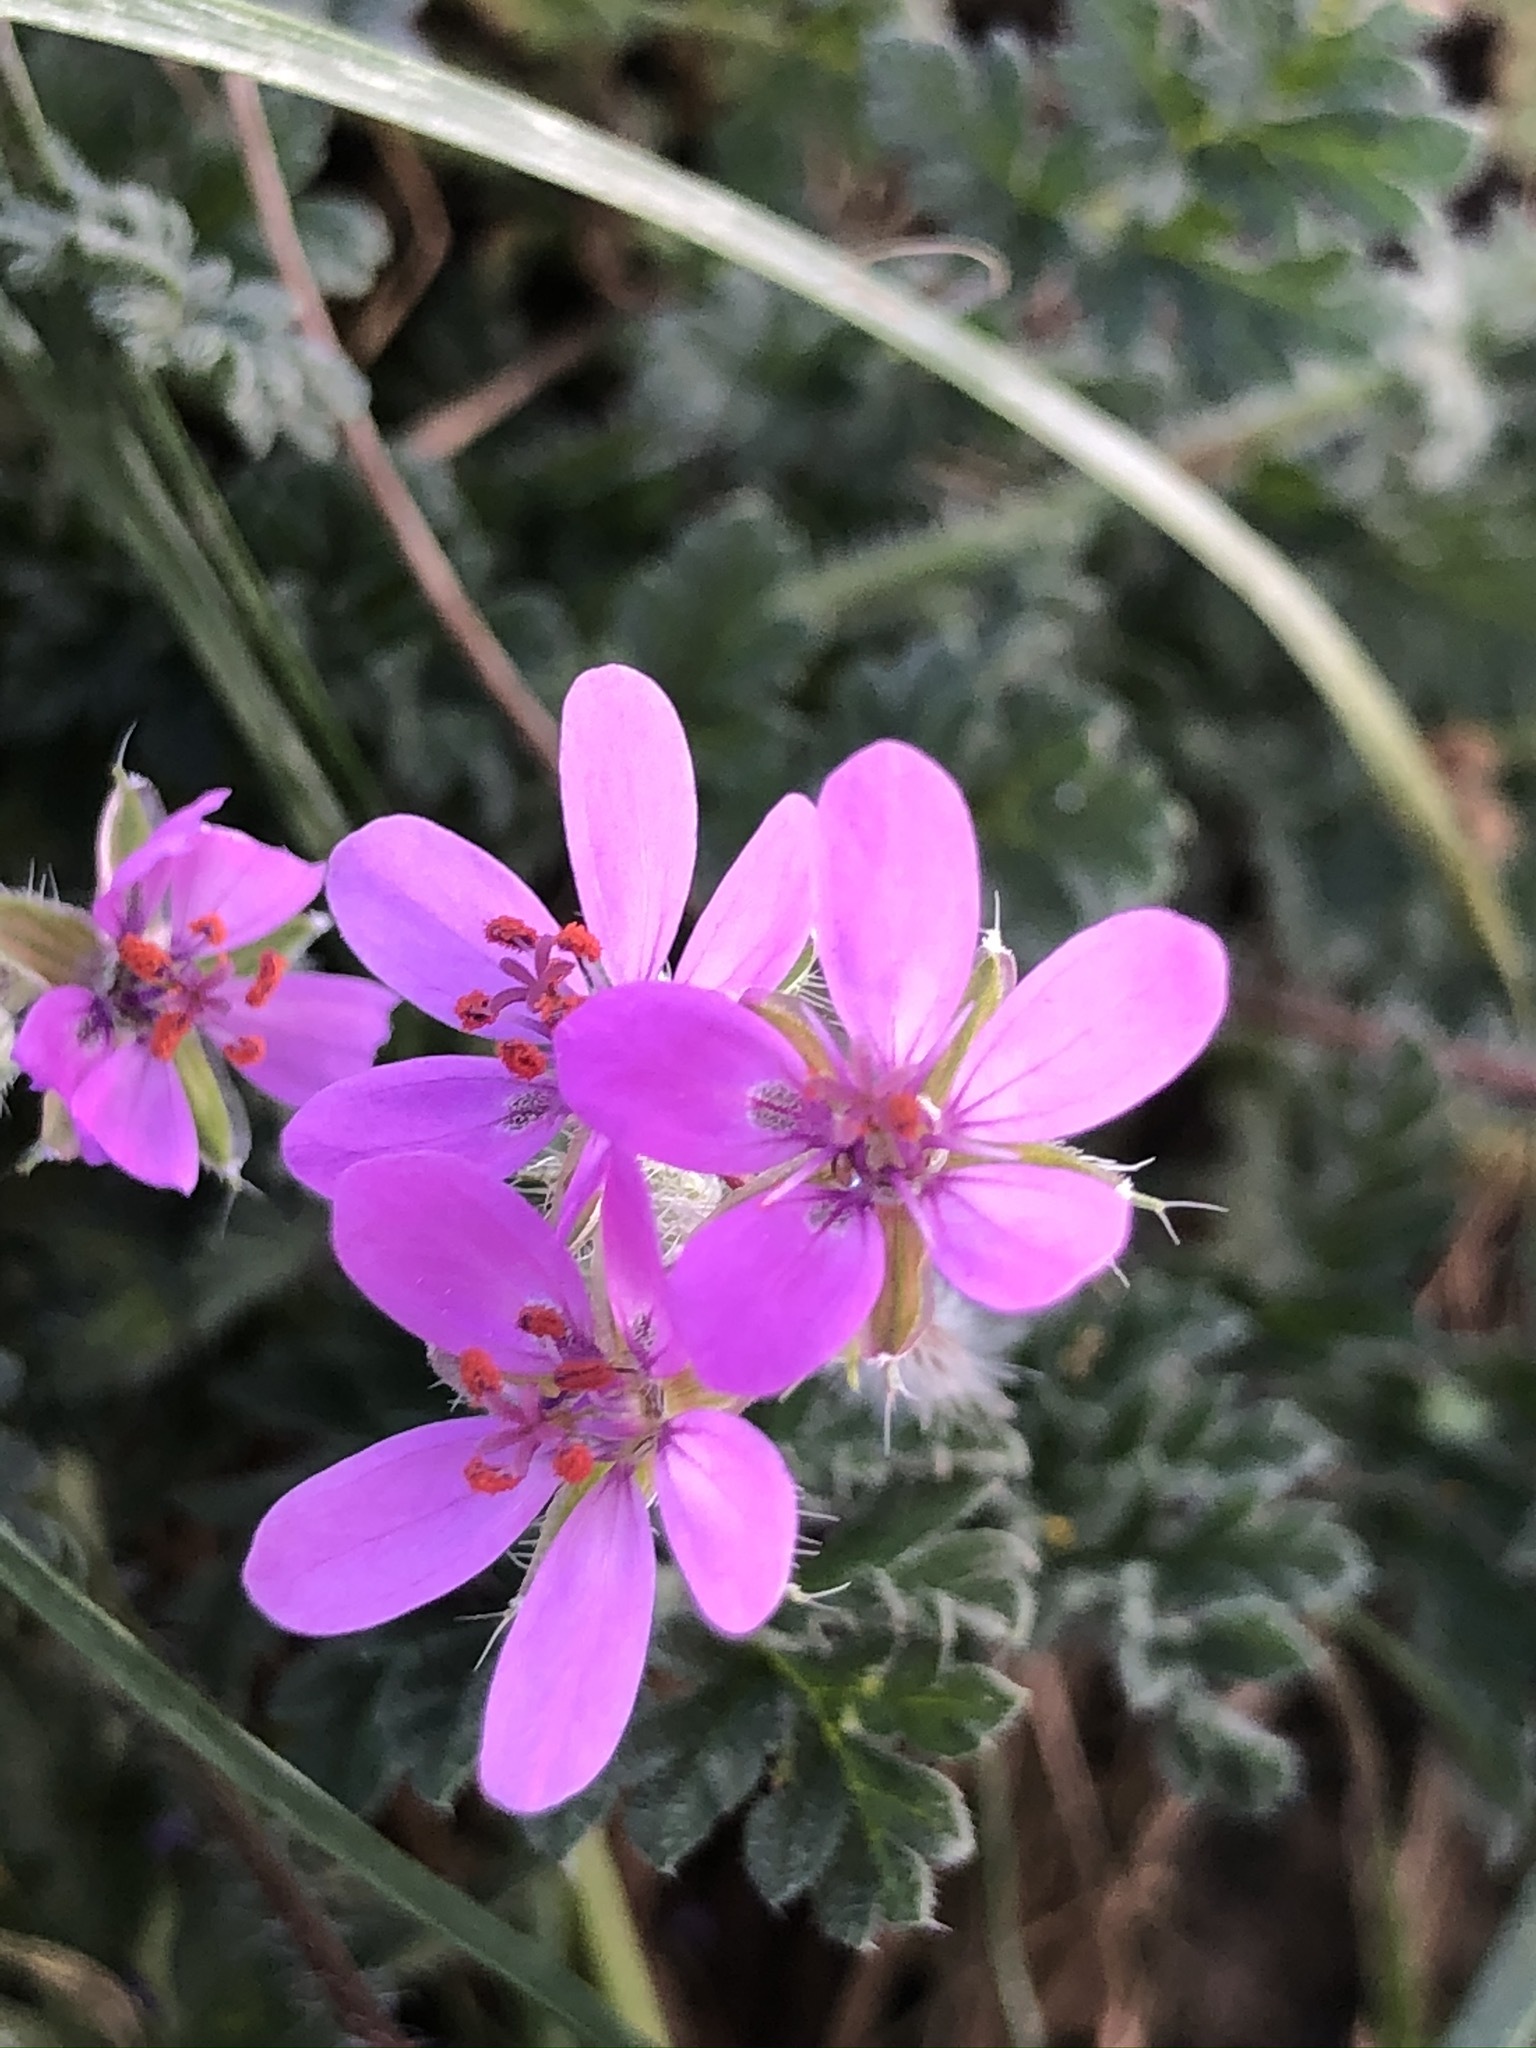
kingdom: Plantae
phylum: Tracheophyta
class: Magnoliopsida
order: Geraniales
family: Geraniaceae
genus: Erodium
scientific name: Erodium cicutarium
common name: Common stork's-bill
